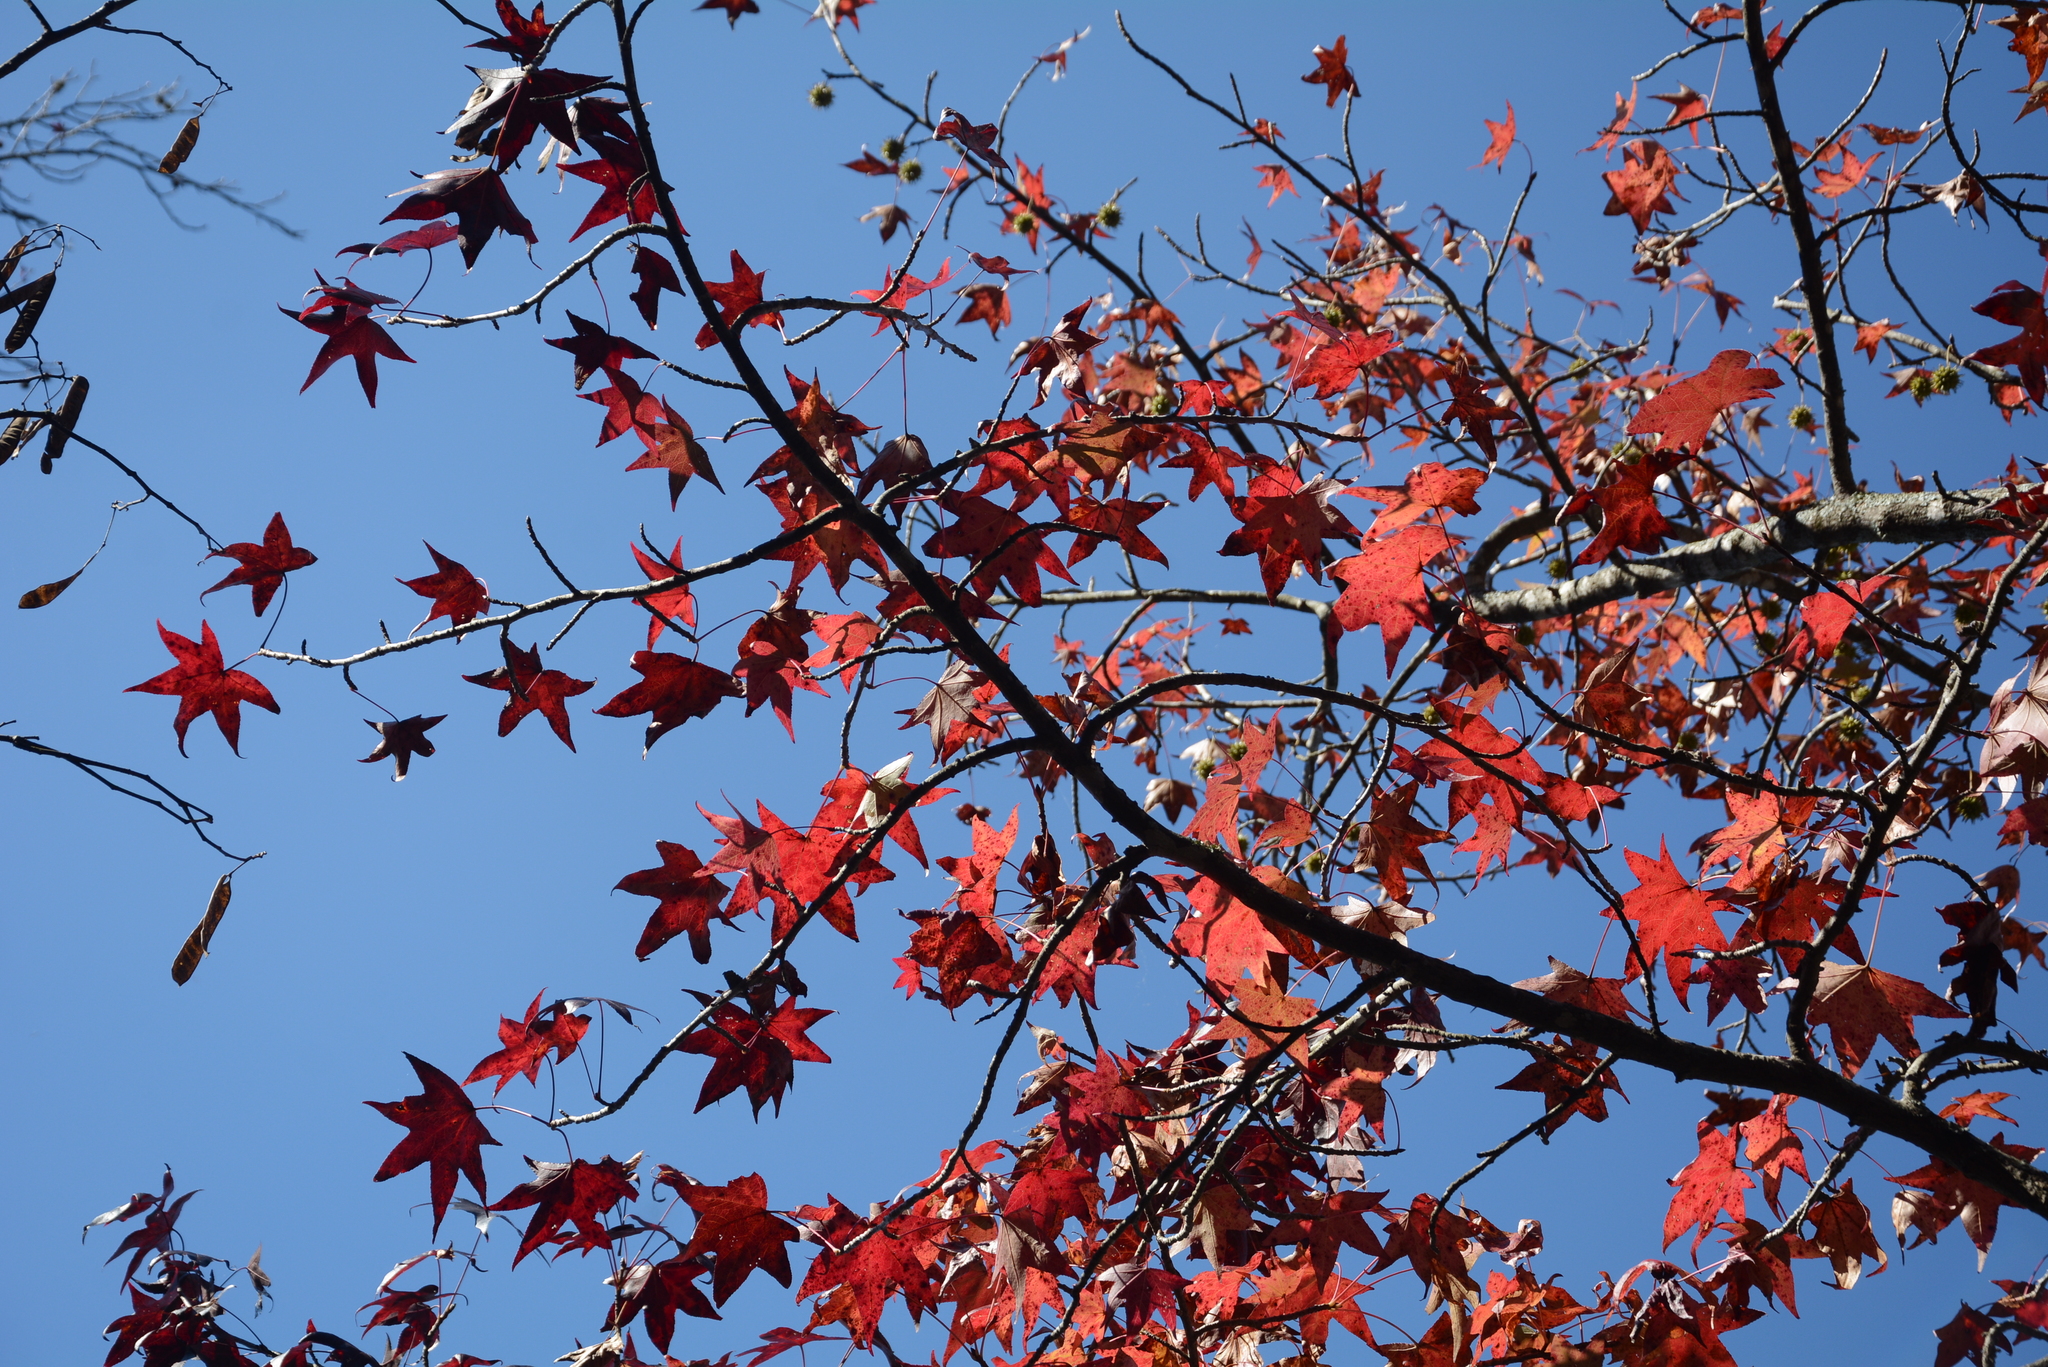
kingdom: Plantae
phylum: Tracheophyta
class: Magnoliopsida
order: Saxifragales
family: Altingiaceae
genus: Liquidambar
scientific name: Liquidambar styraciflua
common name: Sweet gum
